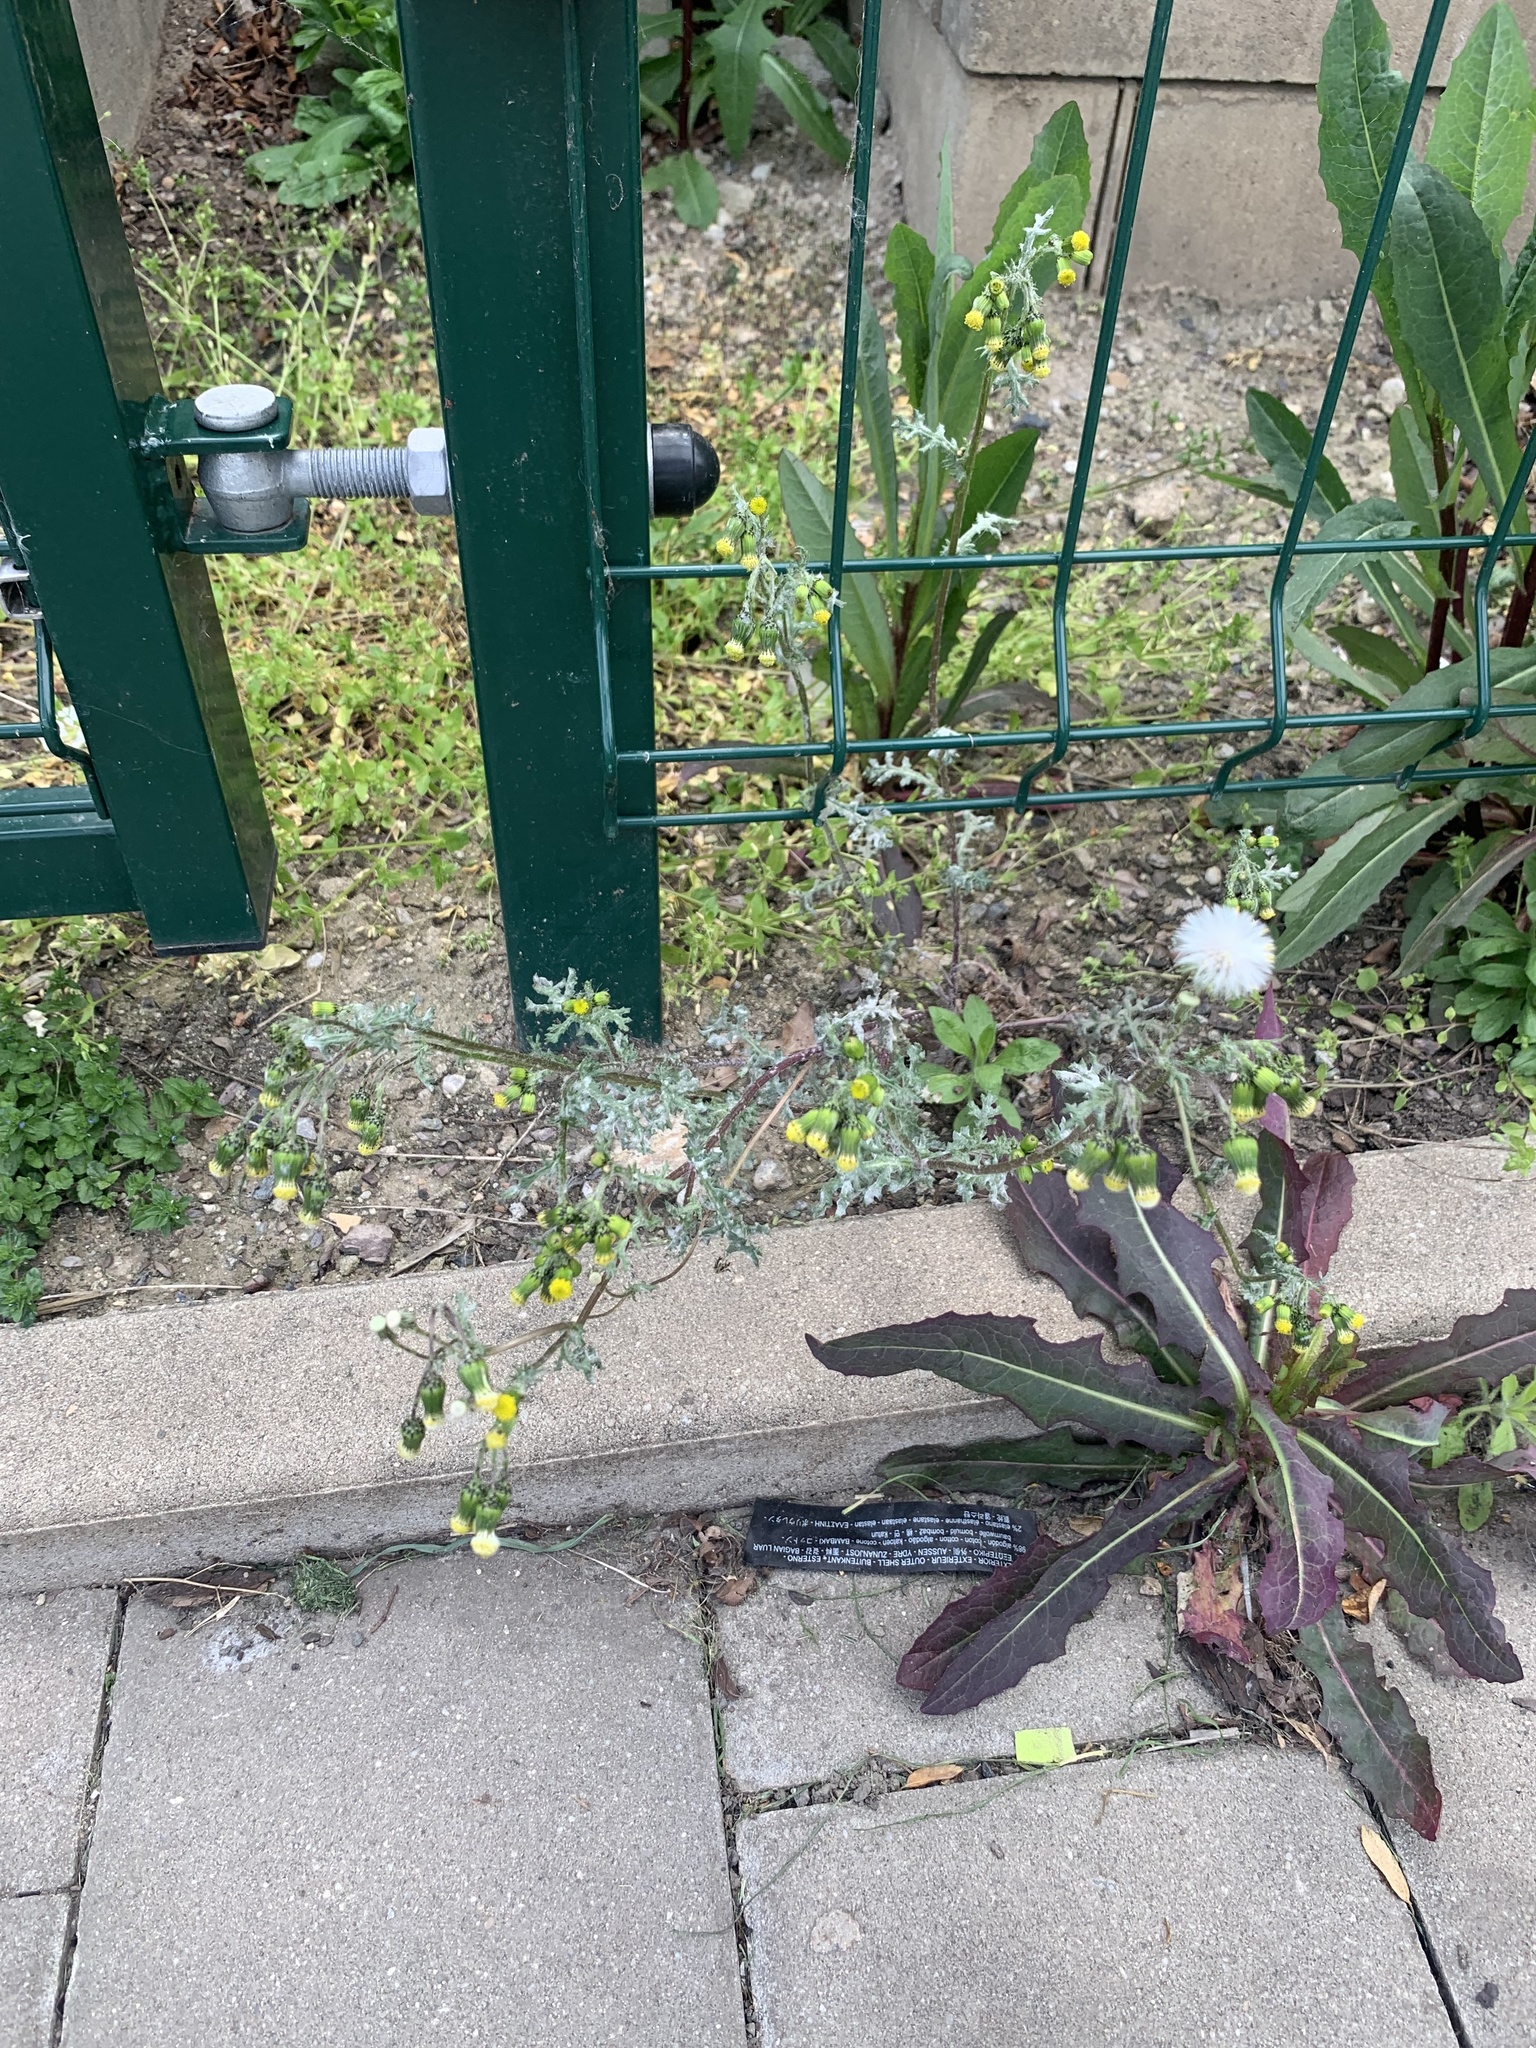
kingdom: Plantae
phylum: Tracheophyta
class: Magnoliopsida
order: Asterales
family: Asteraceae
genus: Senecio
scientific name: Senecio vulgaris
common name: Old-man-in-the-spring
